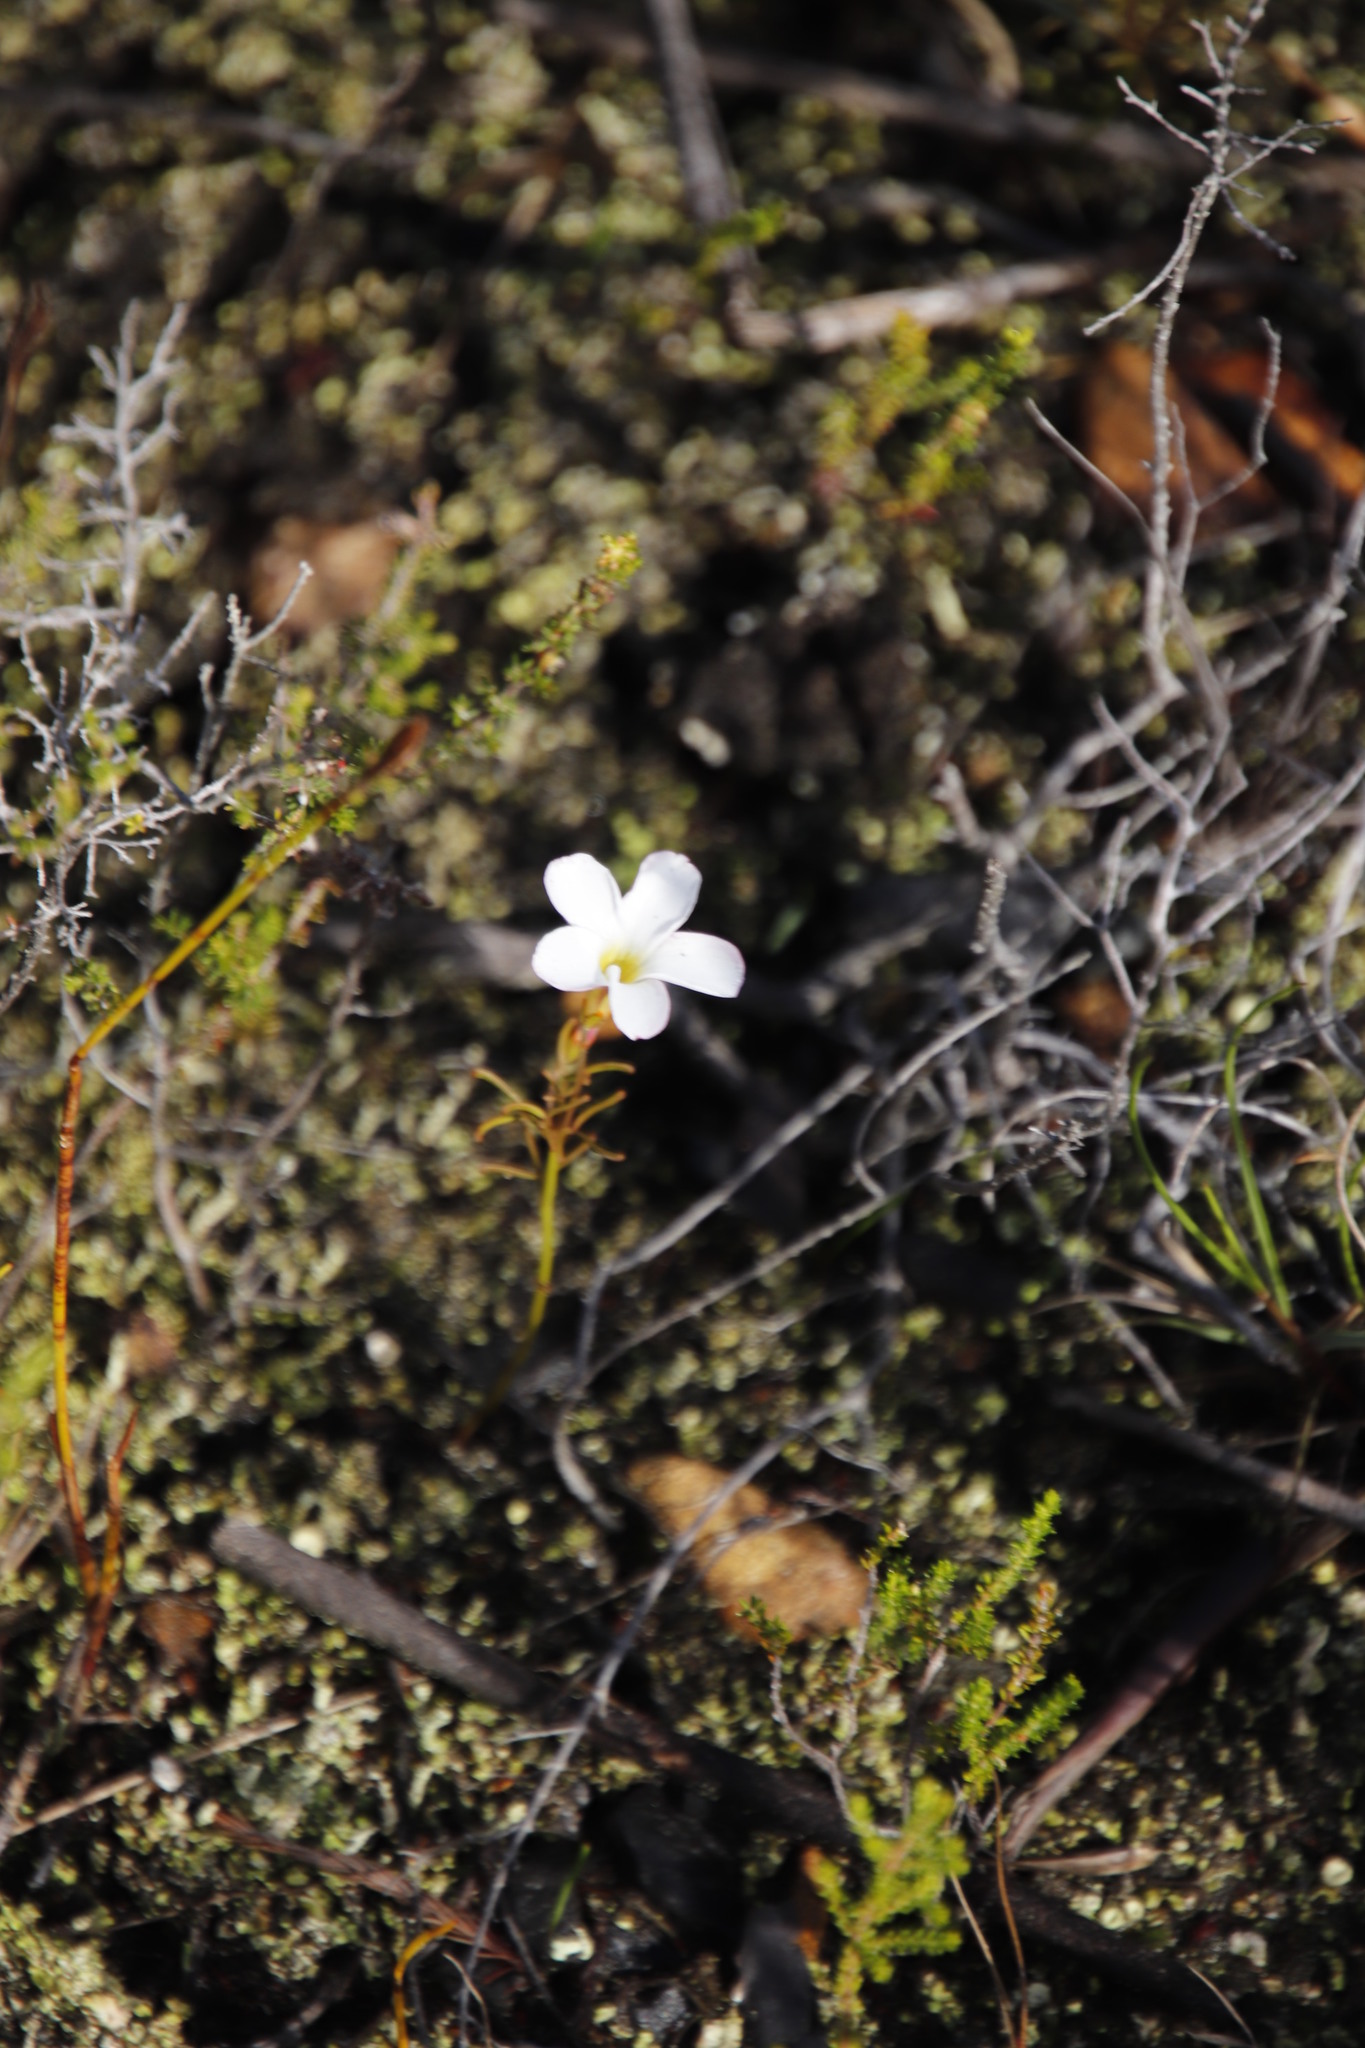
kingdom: Plantae
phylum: Tracheophyta
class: Magnoliopsida
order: Oxalidales
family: Oxalidaceae
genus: Oxalis
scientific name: Oxalis versicolor
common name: Peppermint rock oxalis
